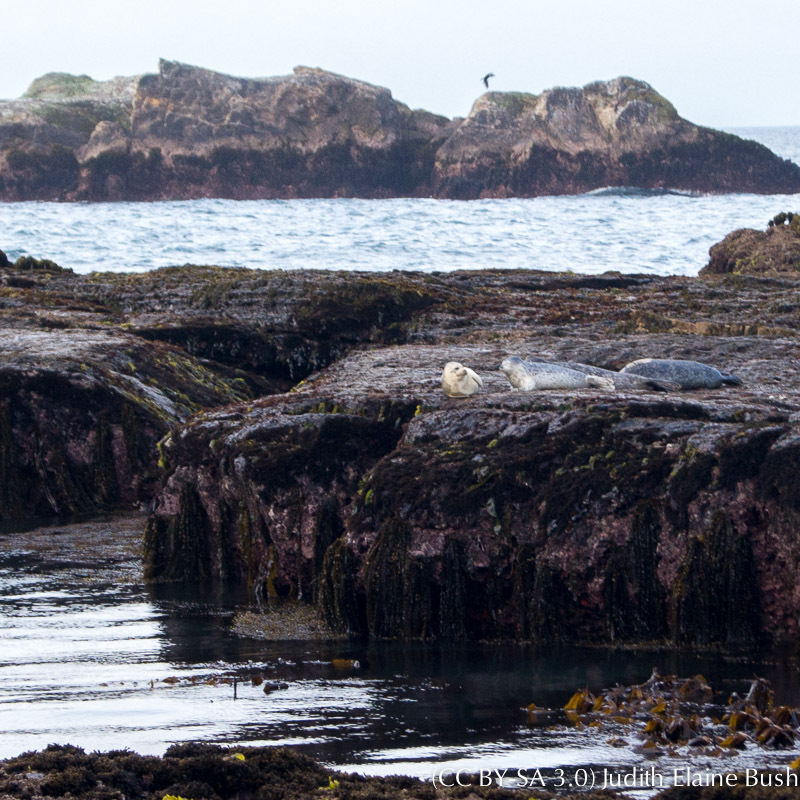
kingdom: Animalia
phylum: Chordata
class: Mammalia
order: Carnivora
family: Phocidae
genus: Phoca
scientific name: Phoca vitulina
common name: Harbor seal
